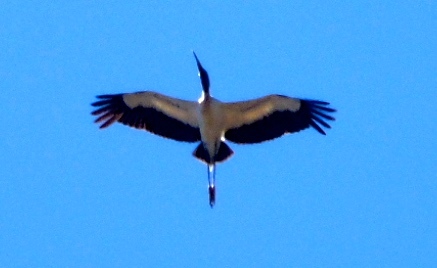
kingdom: Animalia
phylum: Chordata
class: Aves
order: Ciconiiformes
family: Ciconiidae
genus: Mycteria
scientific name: Mycteria americana
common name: Wood stork
